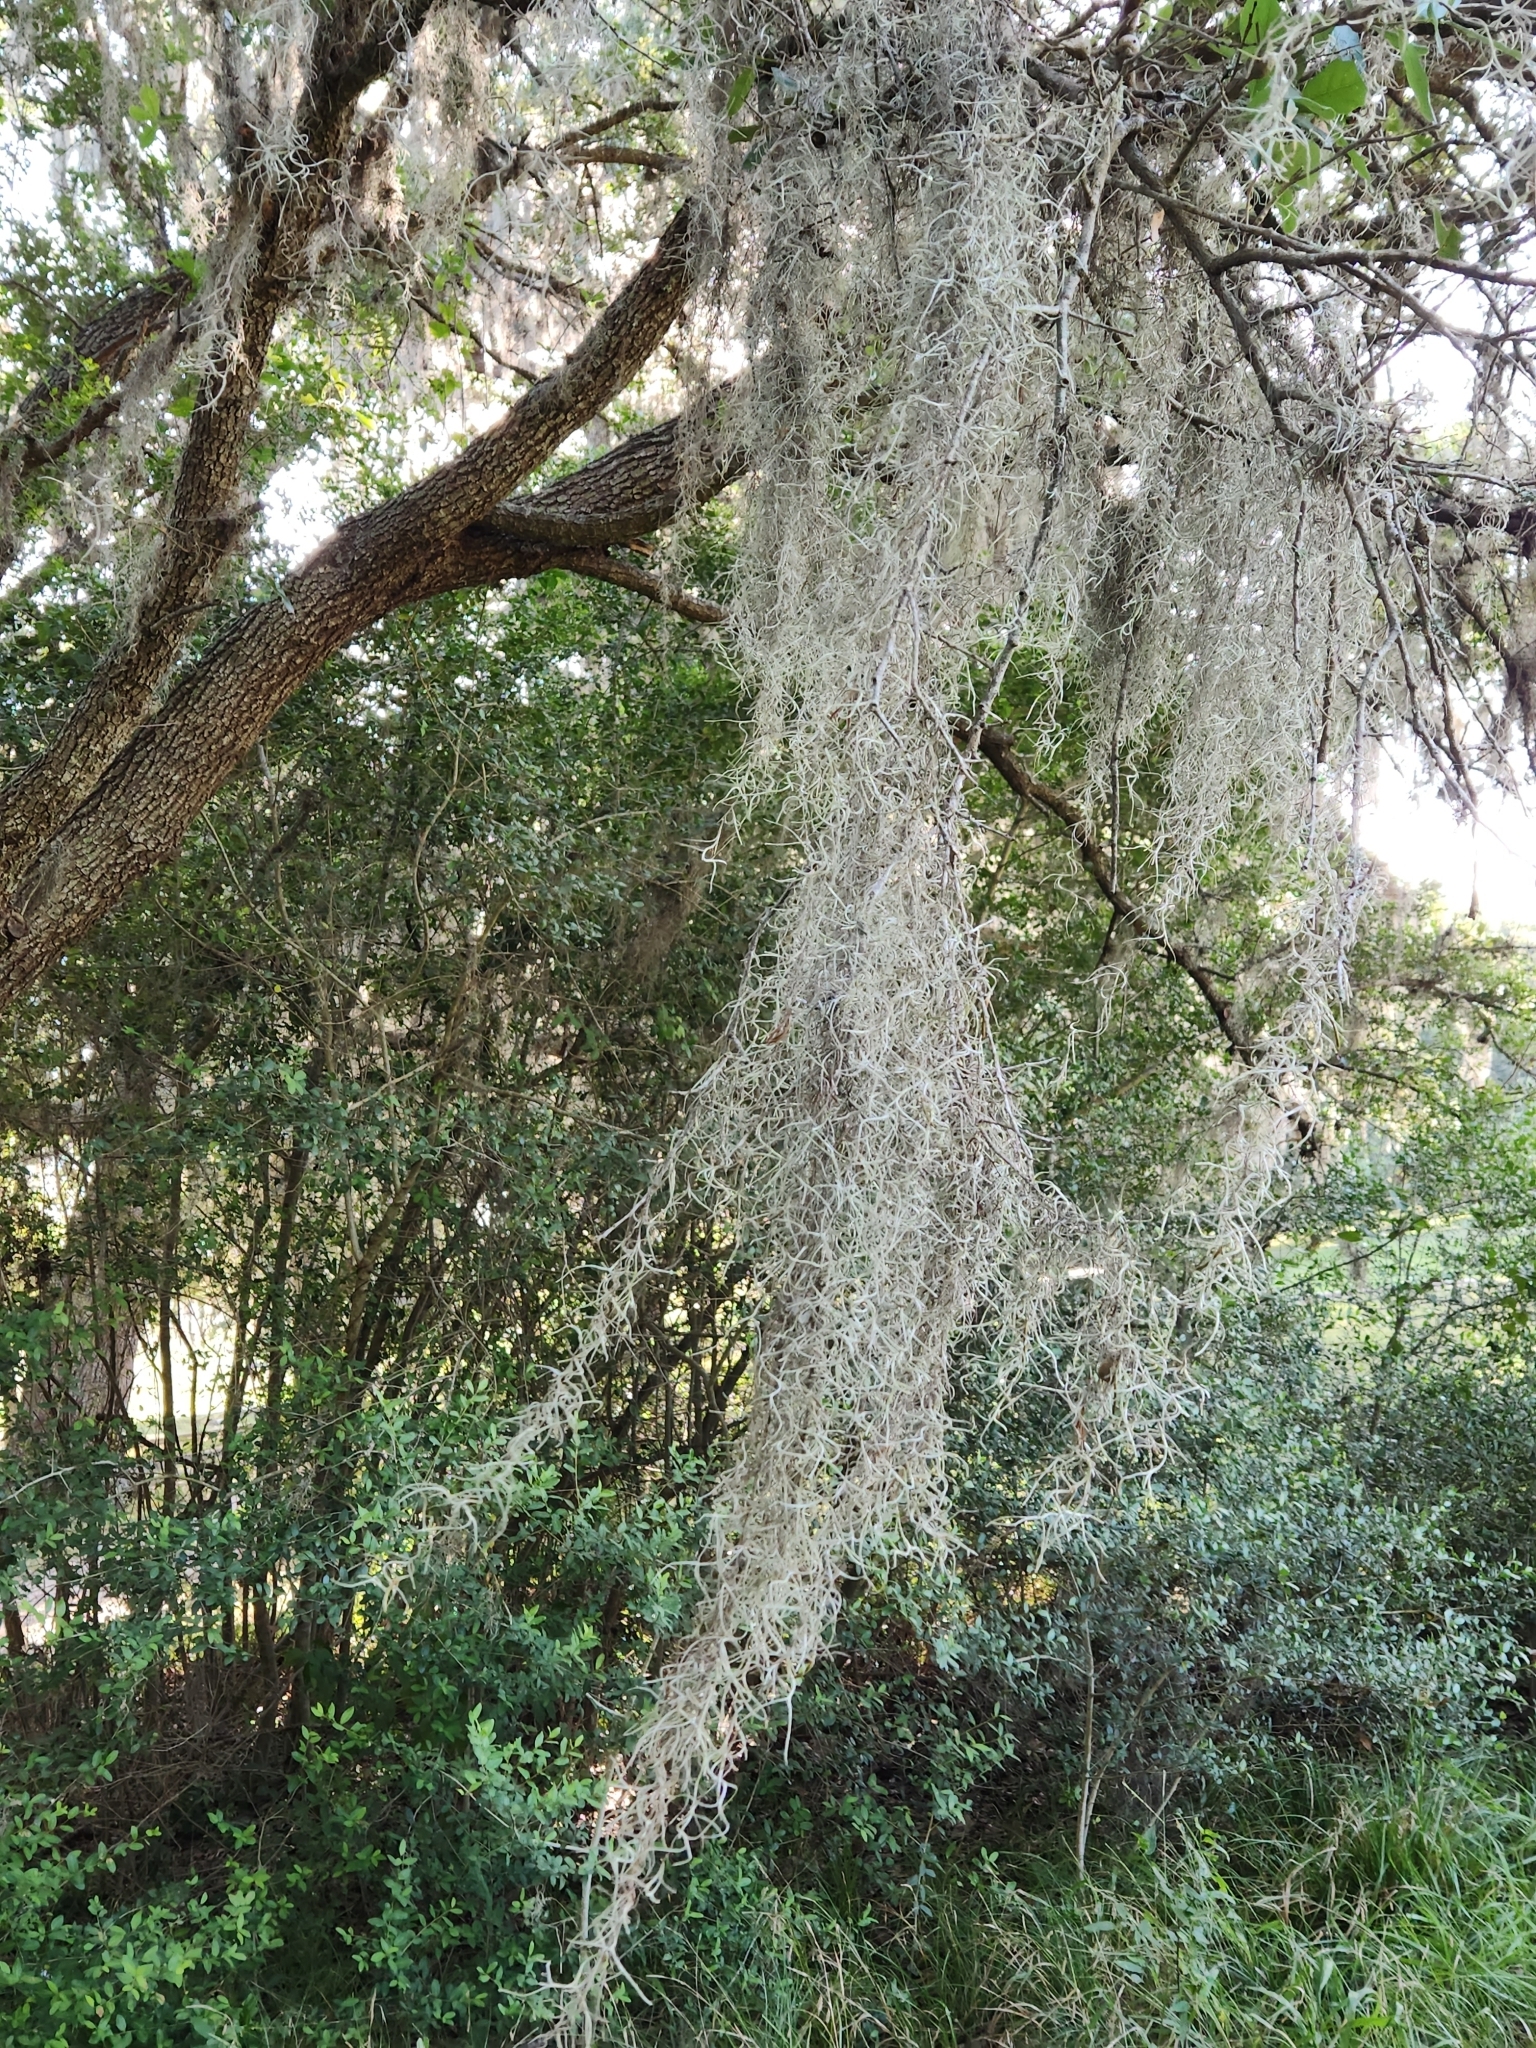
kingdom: Plantae
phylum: Tracheophyta
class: Liliopsida
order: Poales
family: Bromeliaceae
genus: Tillandsia
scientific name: Tillandsia usneoides
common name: Spanish moss
